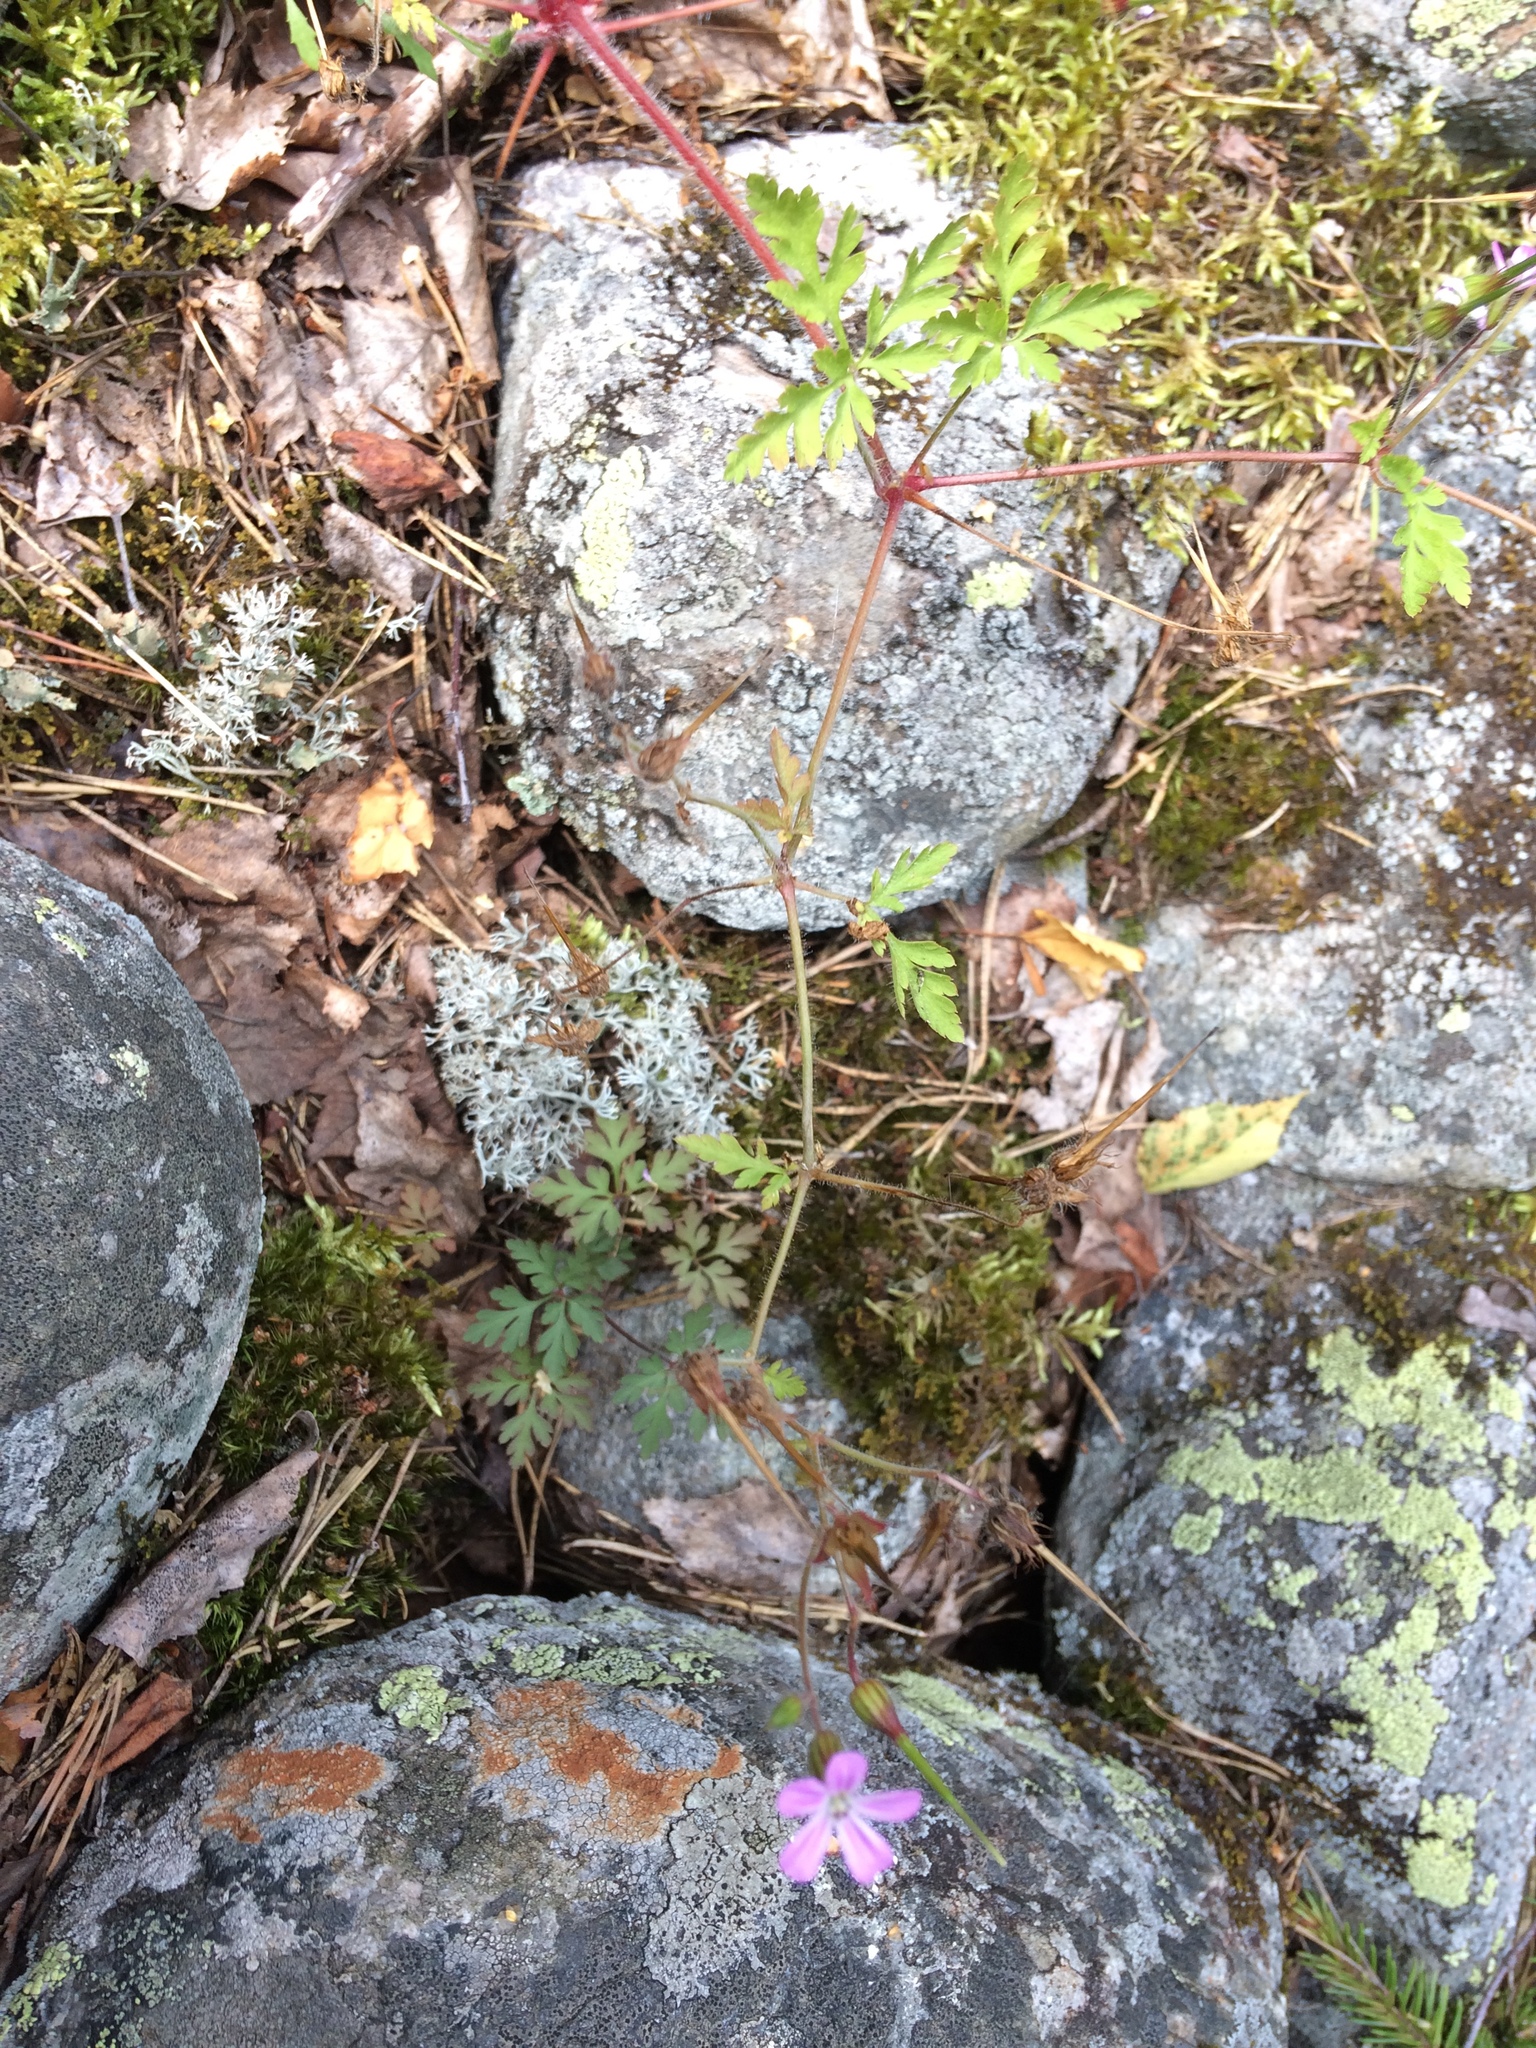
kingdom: Plantae
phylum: Tracheophyta
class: Magnoliopsida
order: Geraniales
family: Geraniaceae
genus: Geranium
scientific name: Geranium robertianum
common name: Herb-robert
